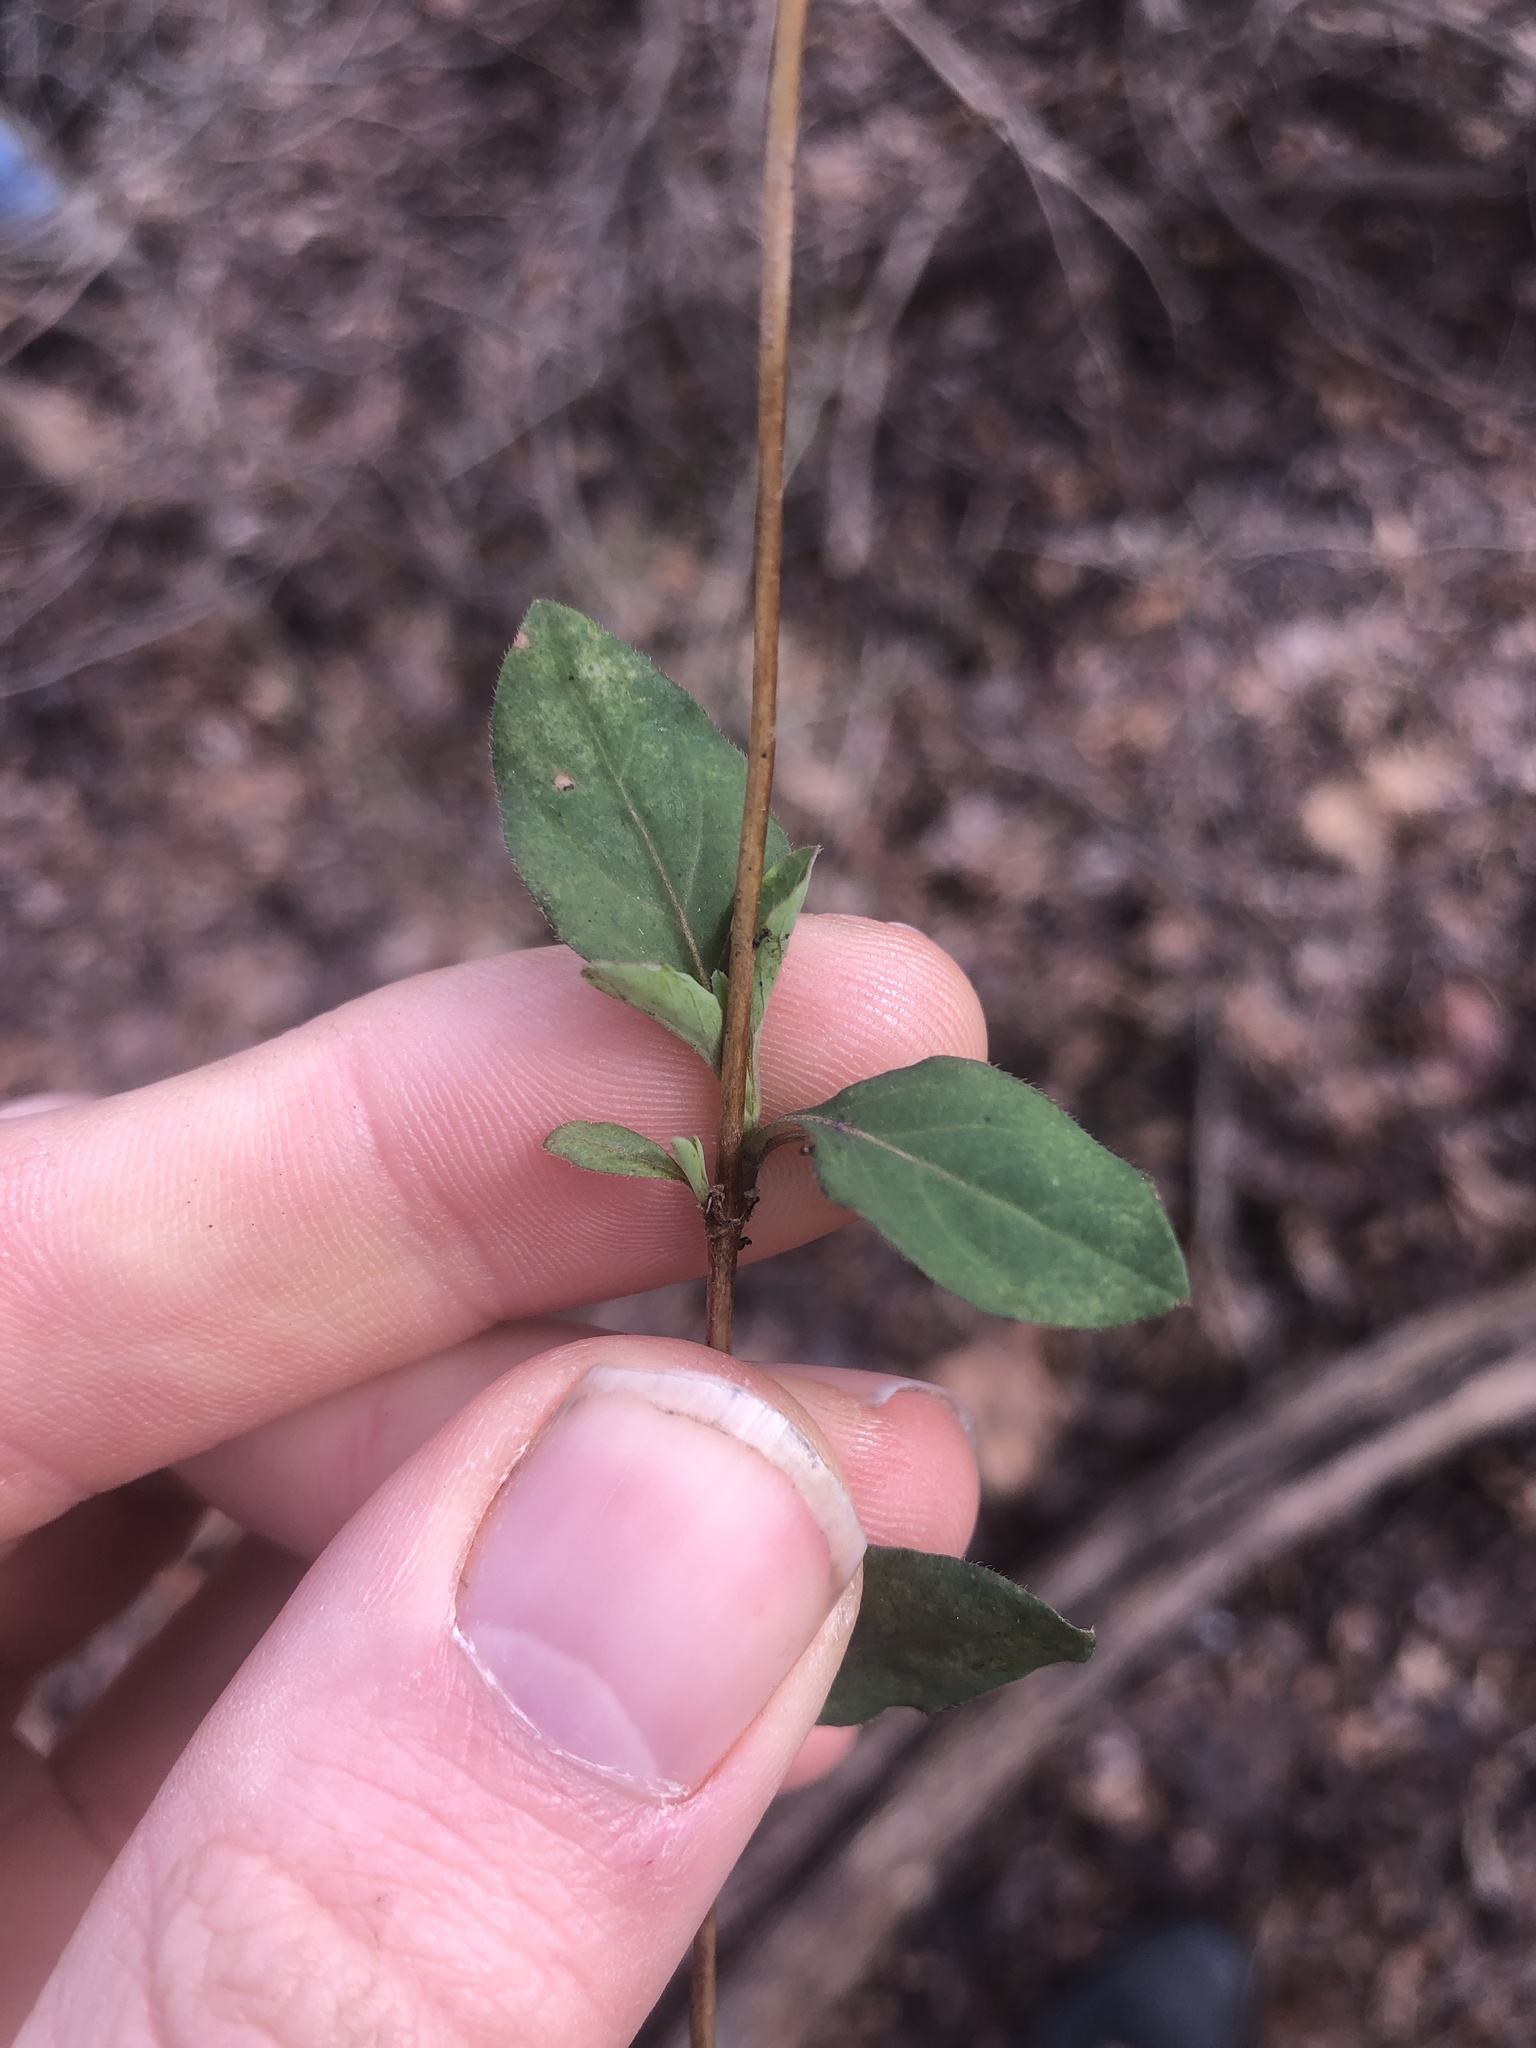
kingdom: Plantae
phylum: Tracheophyta
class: Magnoliopsida
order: Dipsacales
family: Caprifoliaceae
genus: Lonicera
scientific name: Lonicera japonica
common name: Japanese honeysuckle
